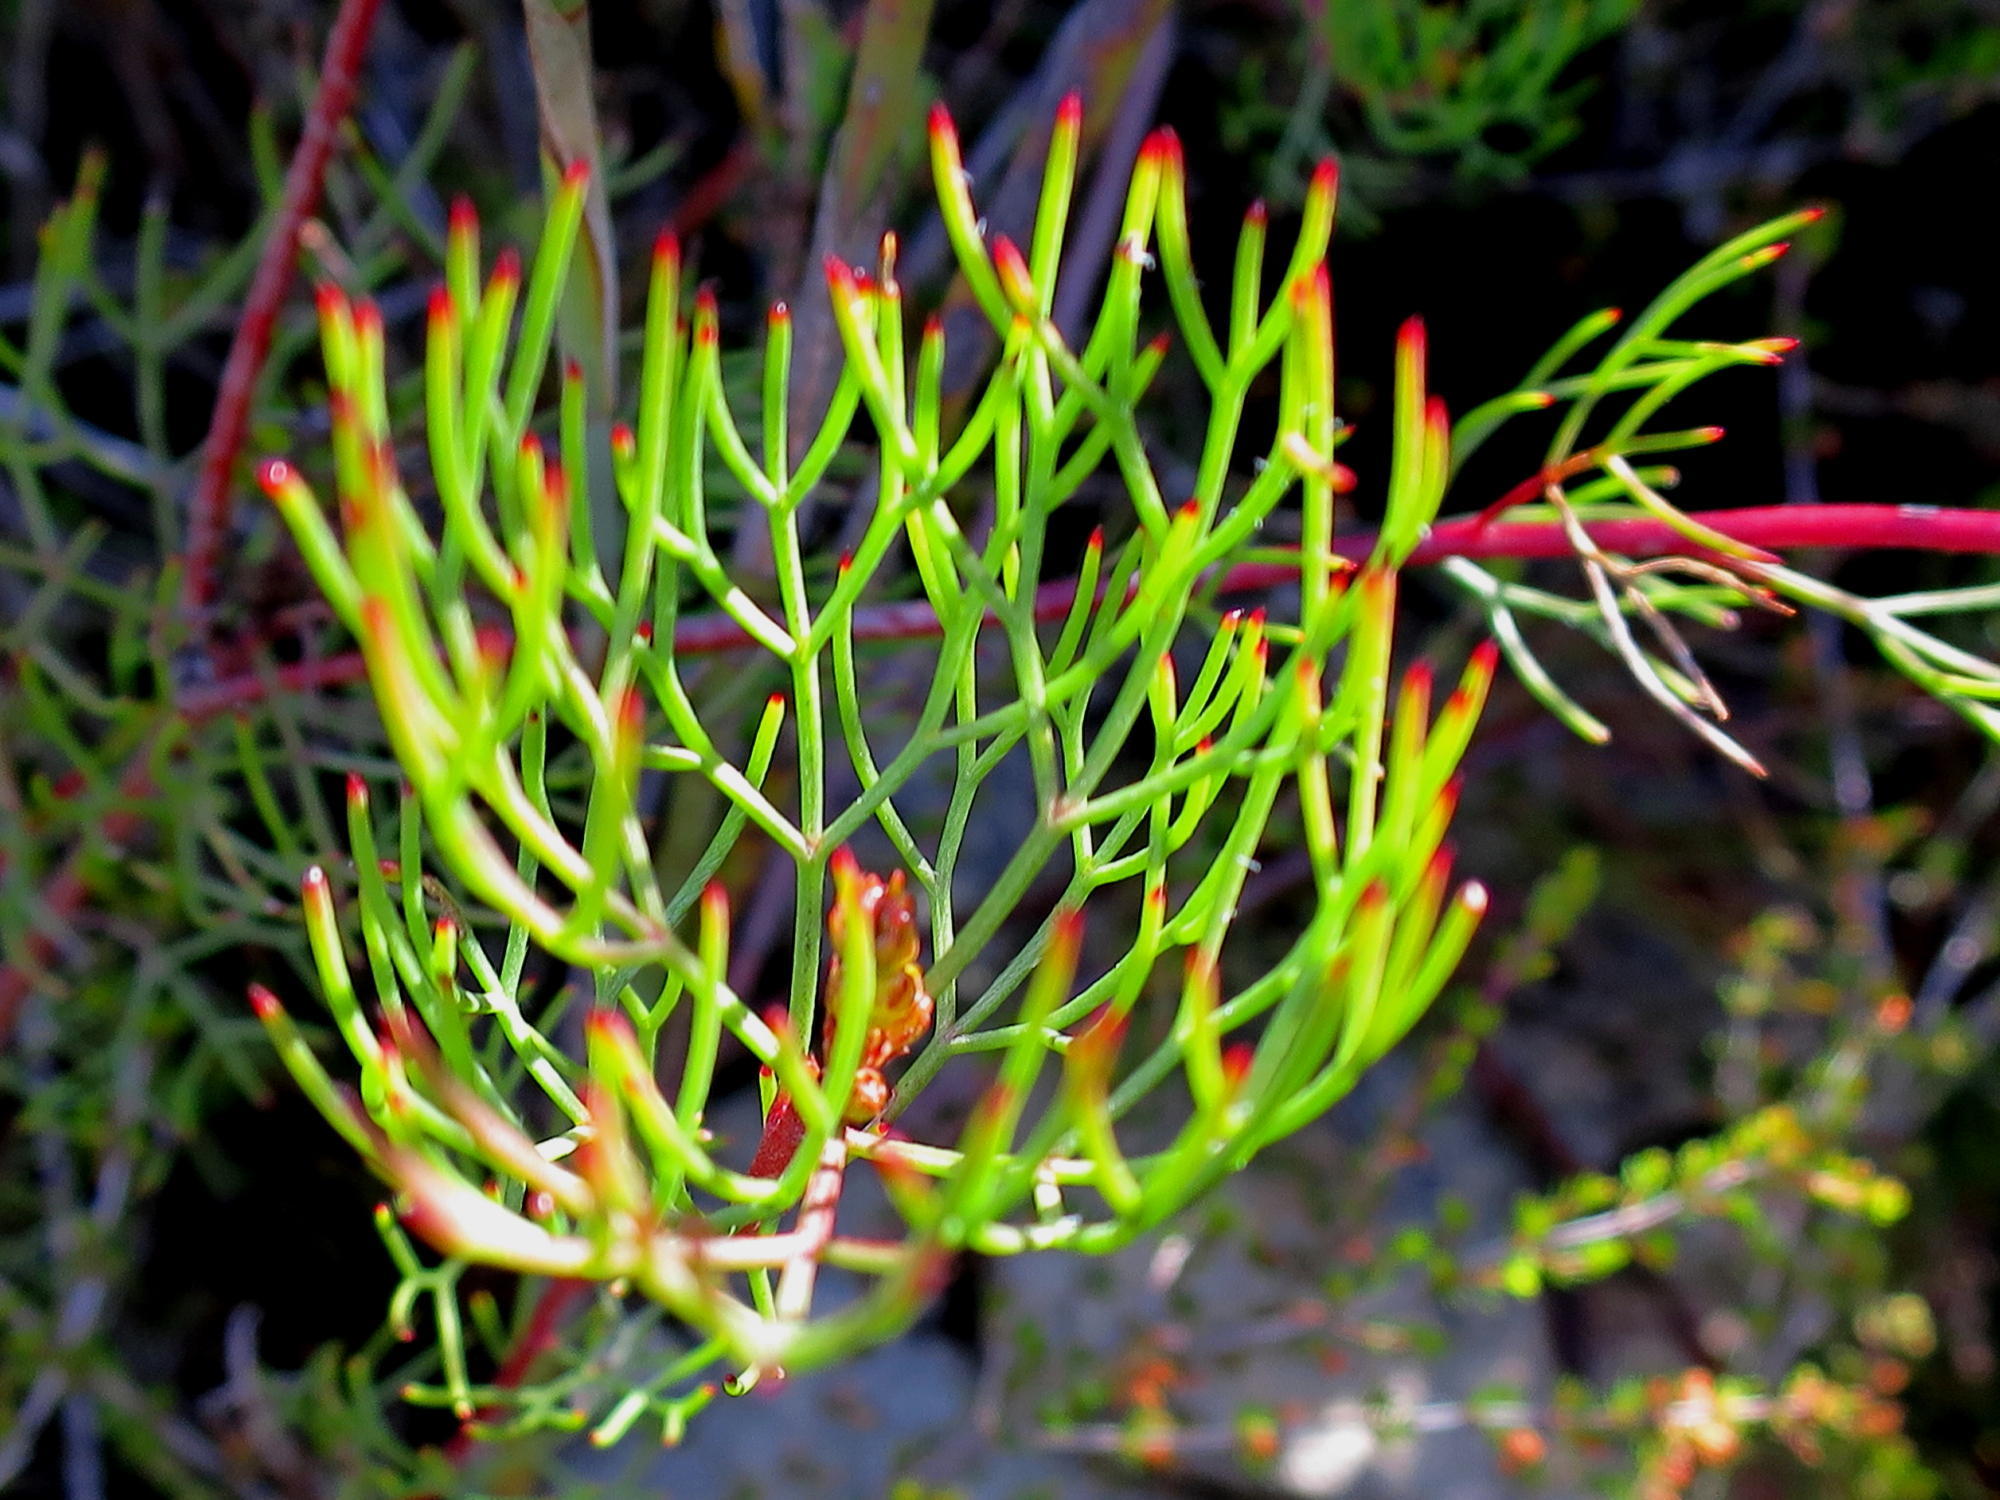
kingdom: Plantae
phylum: Tracheophyta
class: Magnoliopsida
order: Proteales
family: Proteaceae
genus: Serruria
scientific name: Serruria fasciflora
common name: Common pin spiderhead
